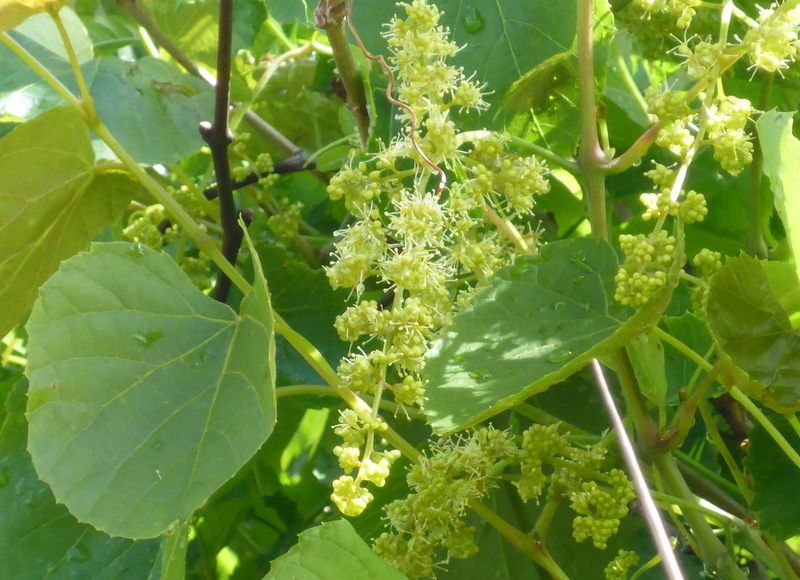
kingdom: Plantae
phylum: Tracheophyta
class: Magnoliopsida
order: Vitales
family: Vitaceae
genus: Vitis
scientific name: Vitis rotundifolia
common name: Muscadine grape
